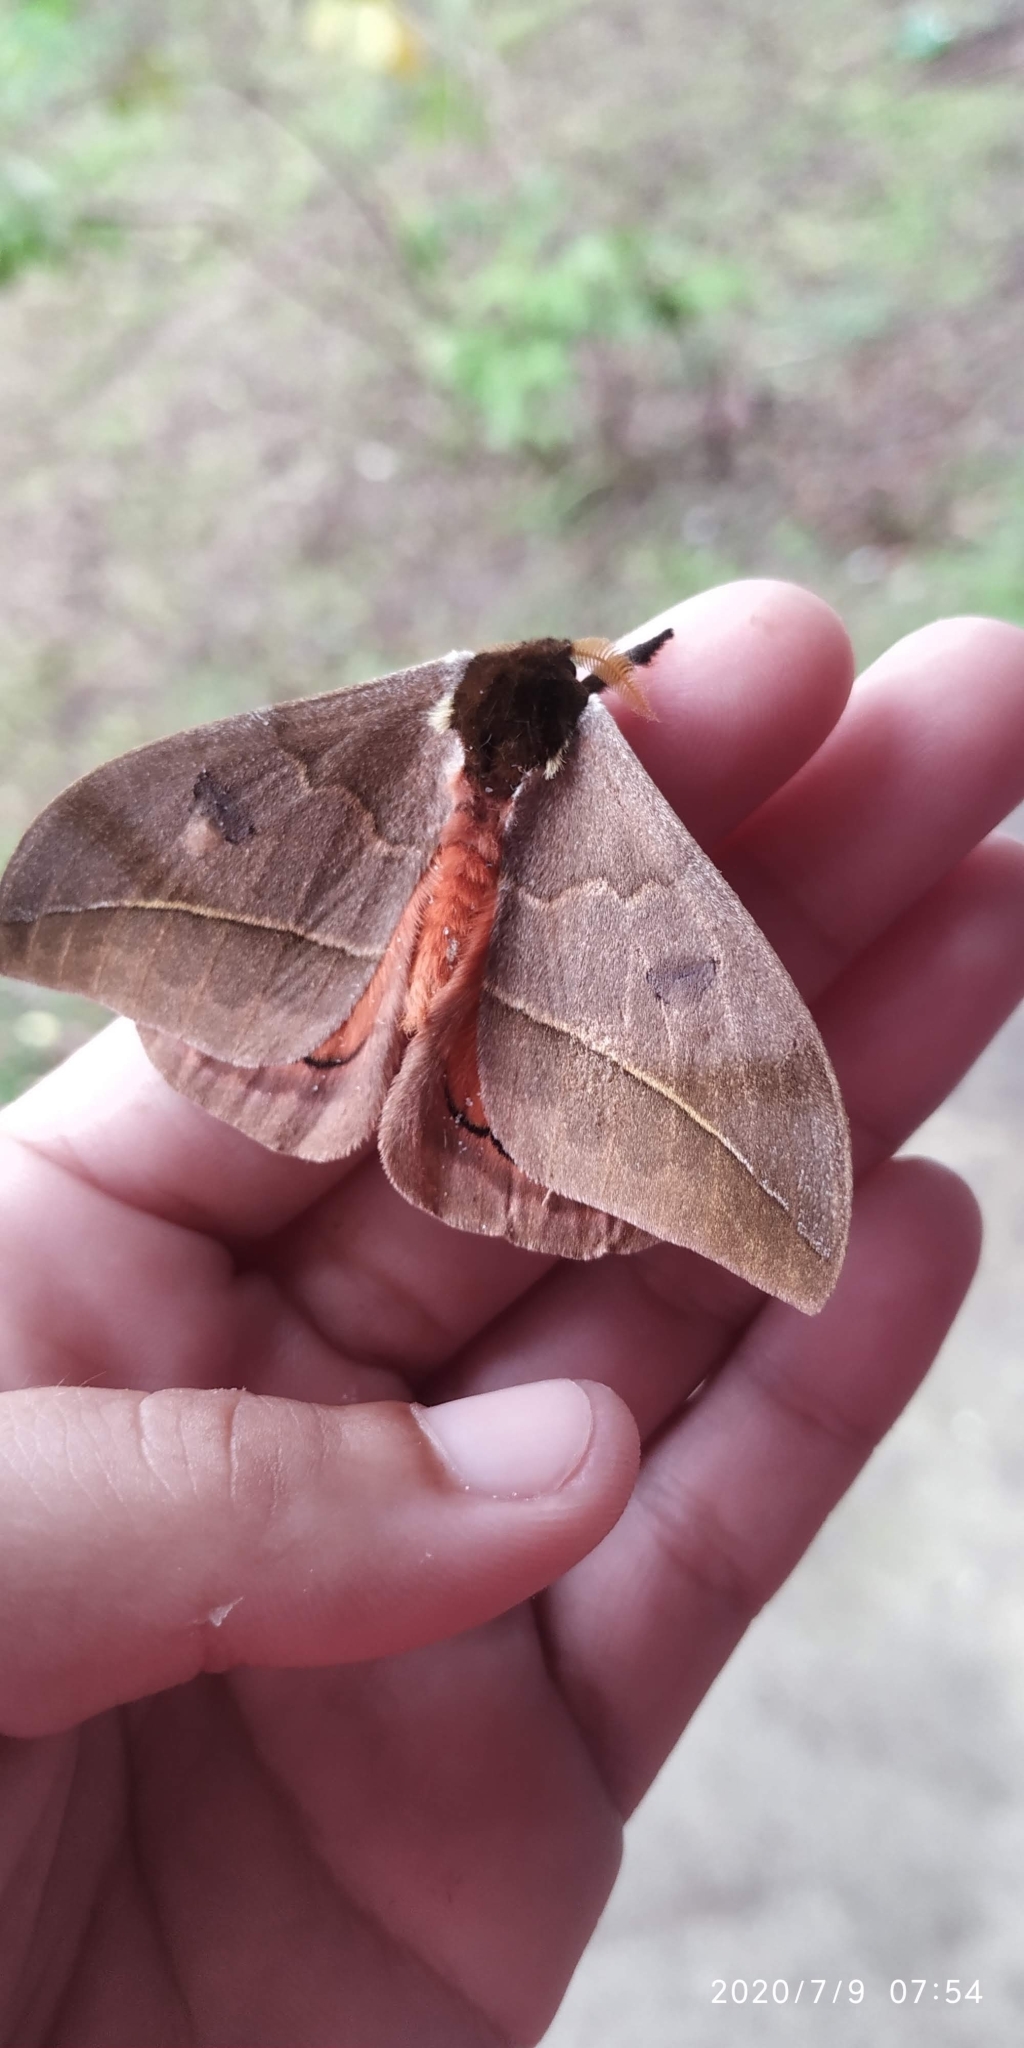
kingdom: Animalia
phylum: Arthropoda
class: Insecta
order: Lepidoptera
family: Saturniidae
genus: Automeris
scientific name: Automeris illustris
